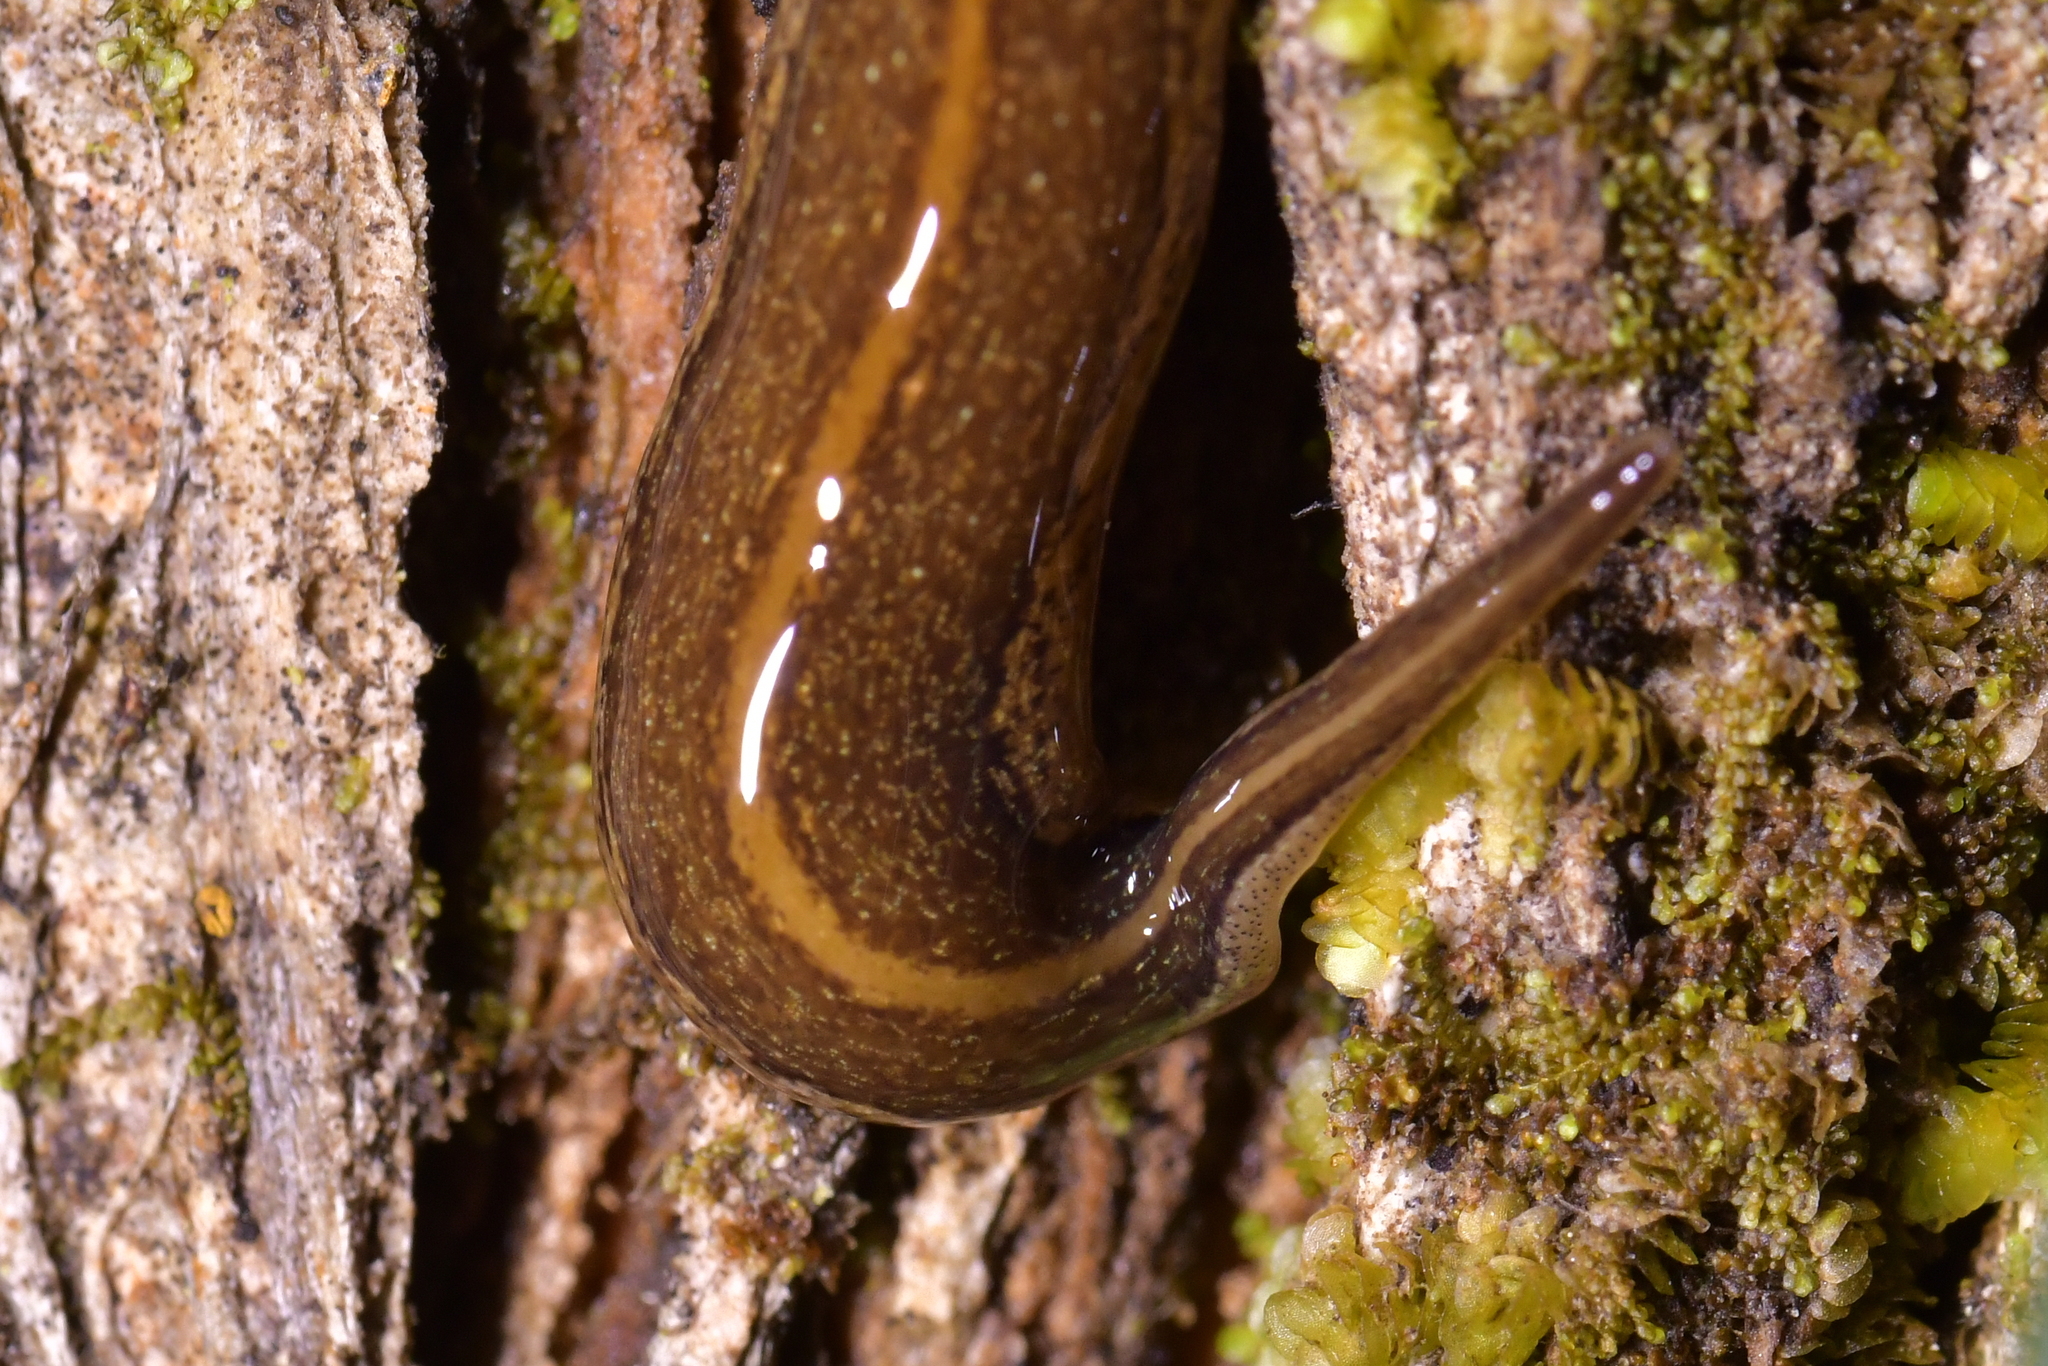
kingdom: Animalia
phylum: Platyhelminthes
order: Tricladida
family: Geoplanidae
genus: Australopacifica
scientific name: Australopacifica jacksoniana
